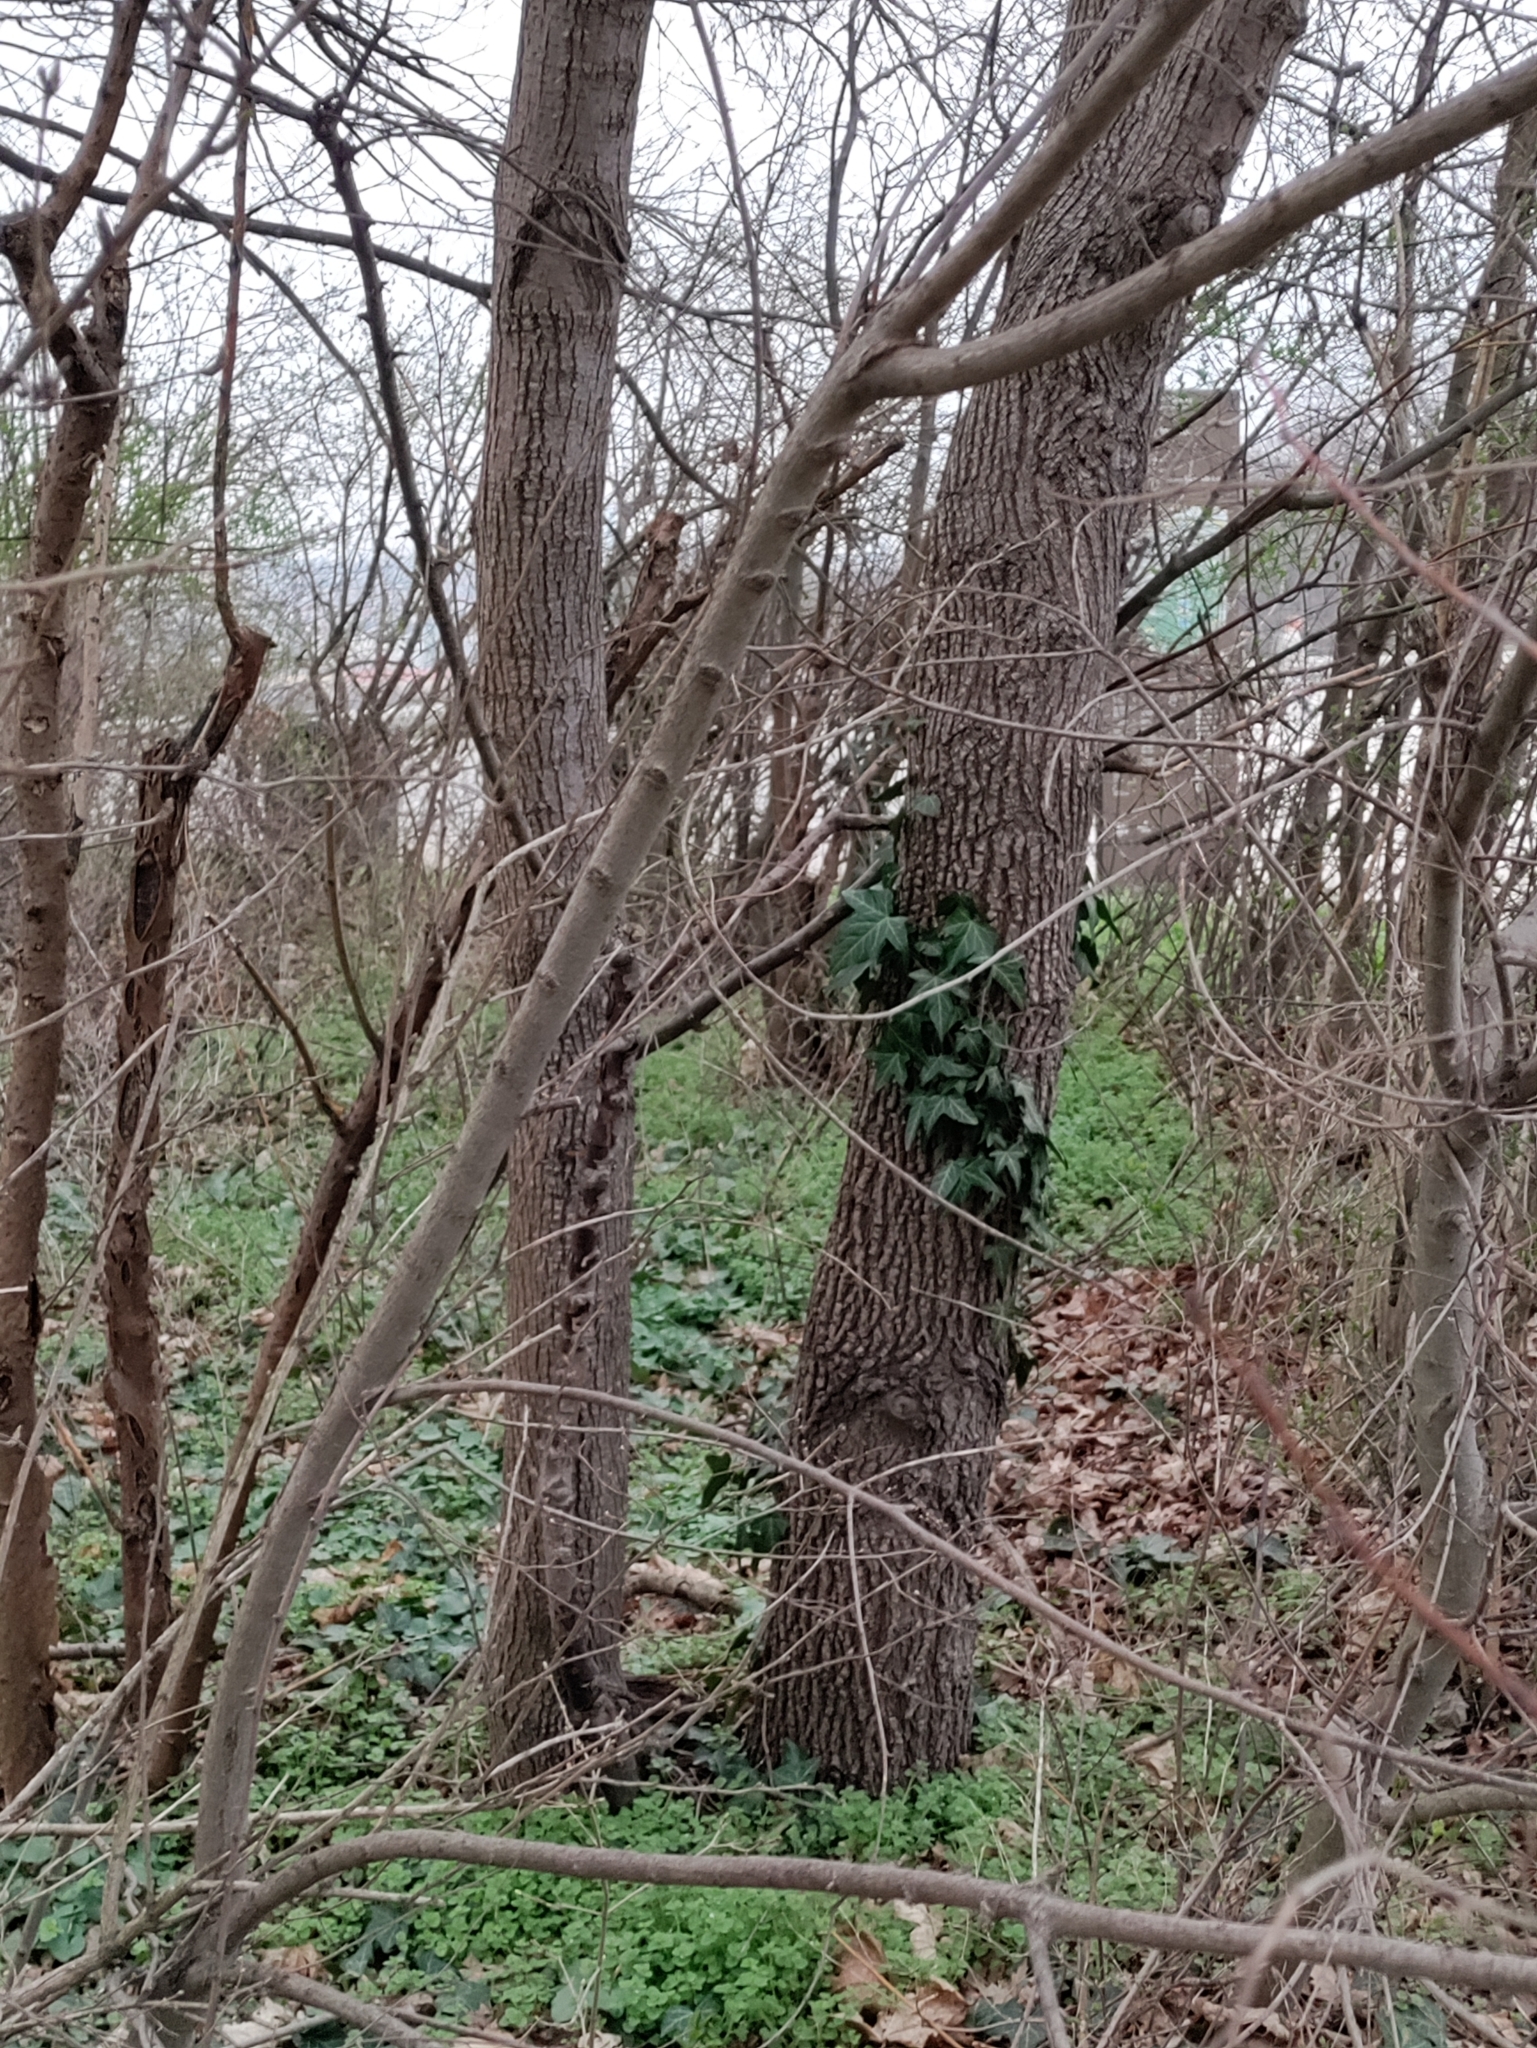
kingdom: Plantae
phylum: Tracheophyta
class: Magnoliopsida
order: Rosales
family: Ulmaceae
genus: Ulmus
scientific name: Ulmus minor
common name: Small-leaved elm
